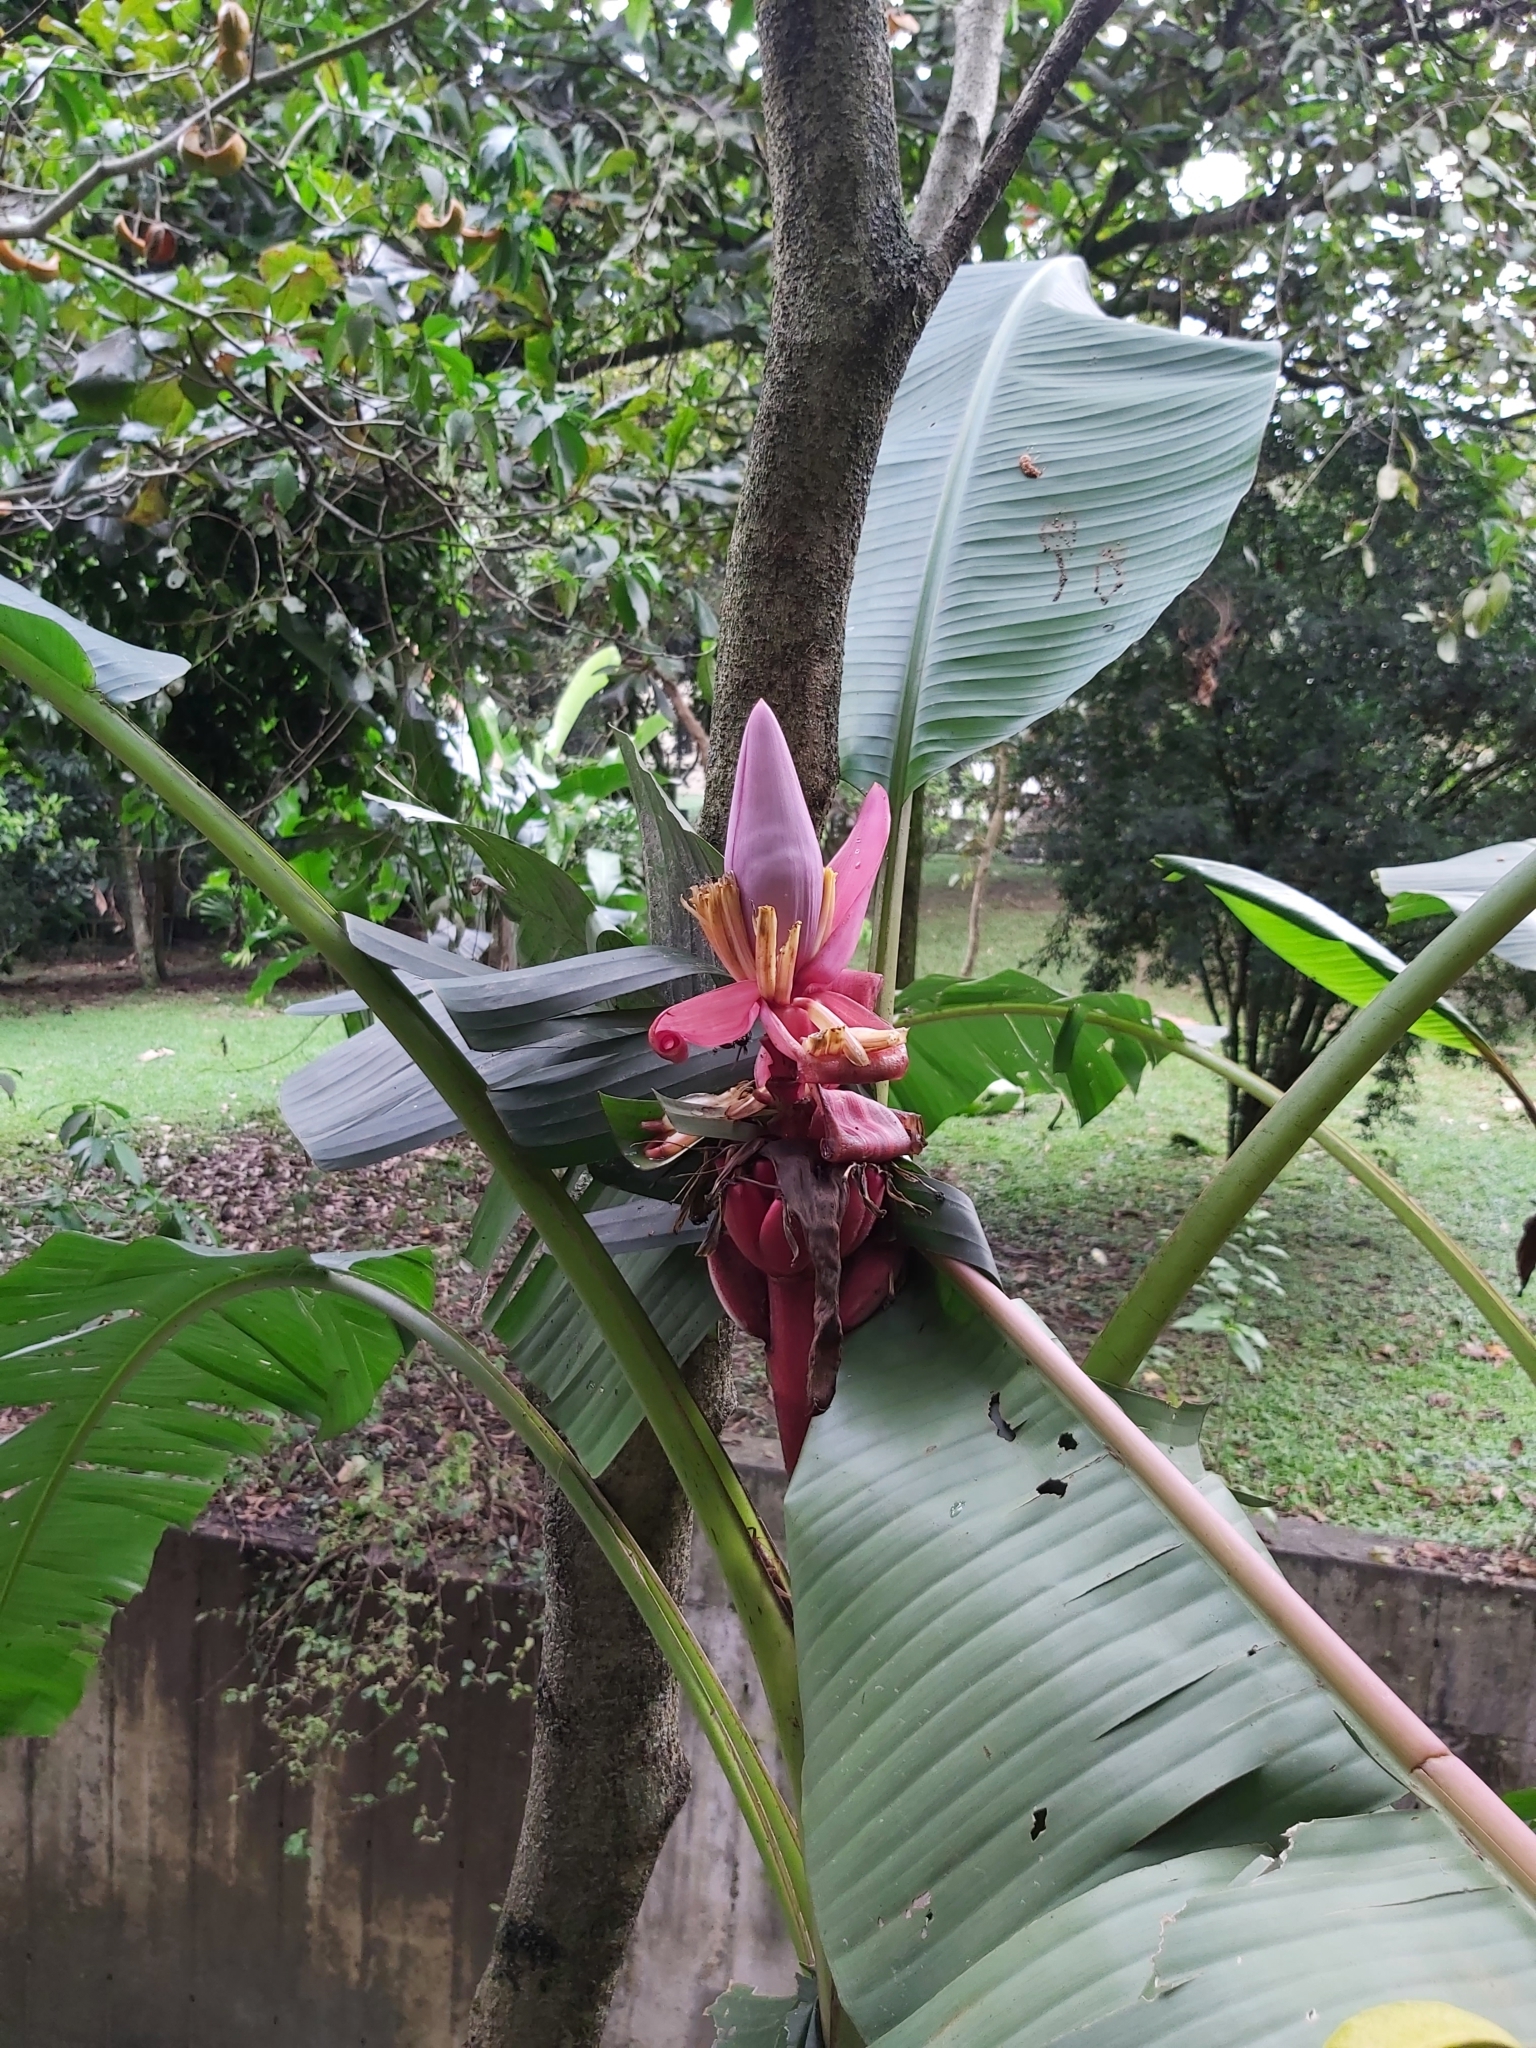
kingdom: Plantae
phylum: Tracheophyta
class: Liliopsida
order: Zingiberales
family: Musaceae
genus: Musa
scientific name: Musa velutina
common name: Pink velvet banana
